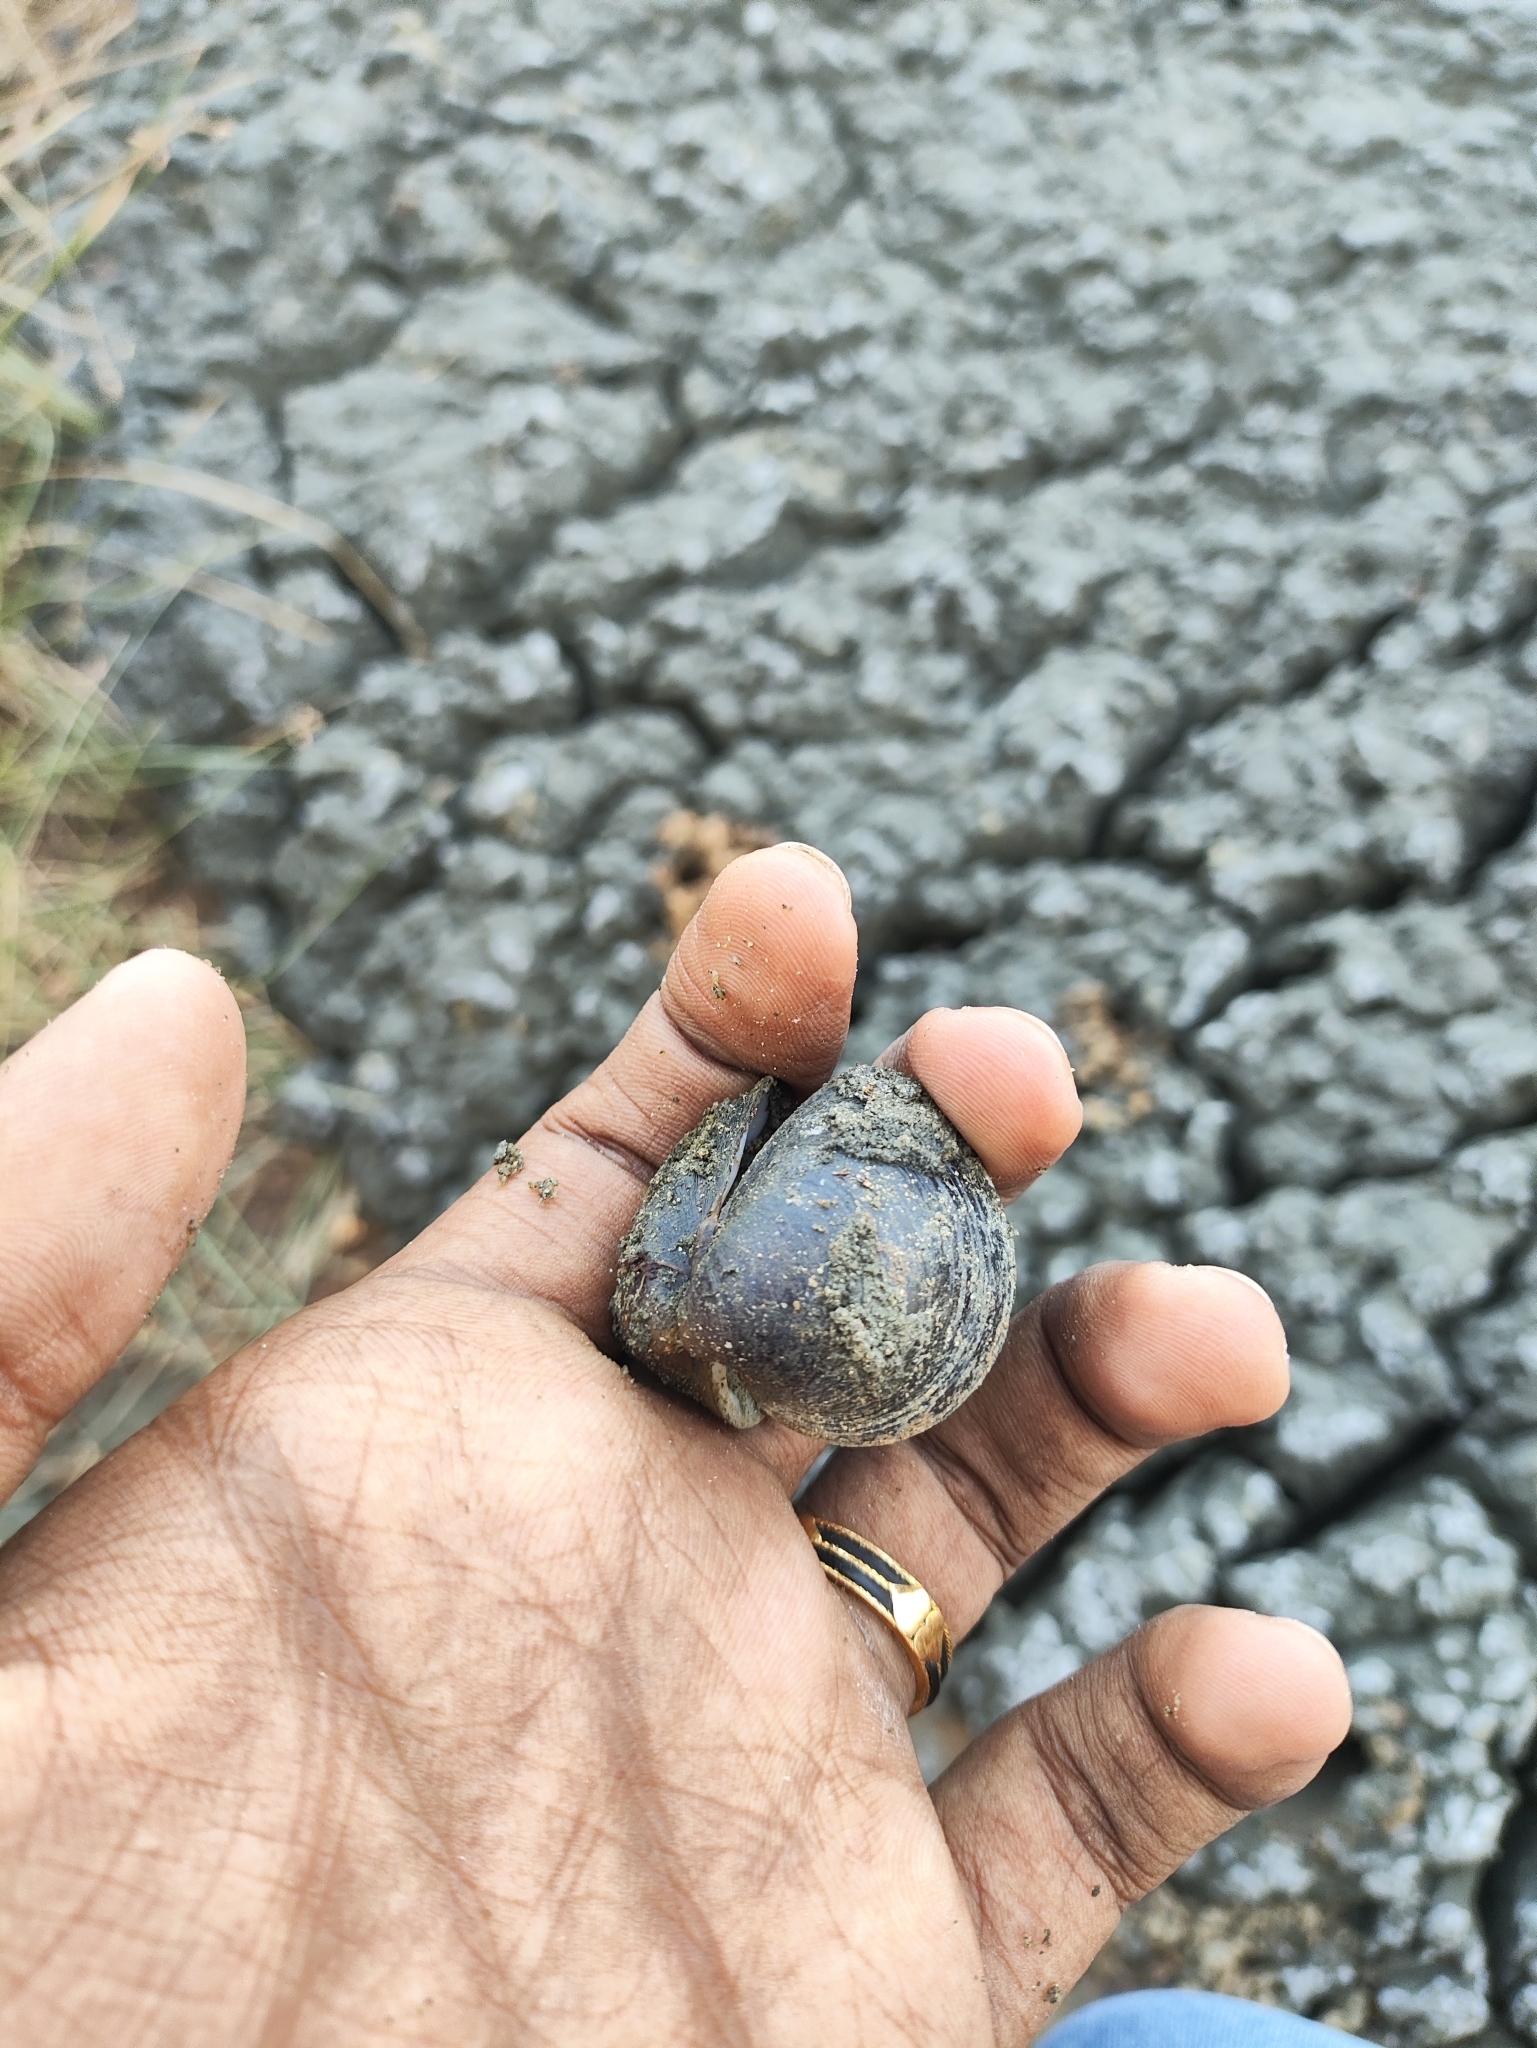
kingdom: Animalia
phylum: Mollusca
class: Bivalvia
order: Venerida
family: Cyrenidae
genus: Villorita
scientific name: Villorita cyprinoides
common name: Black clam
